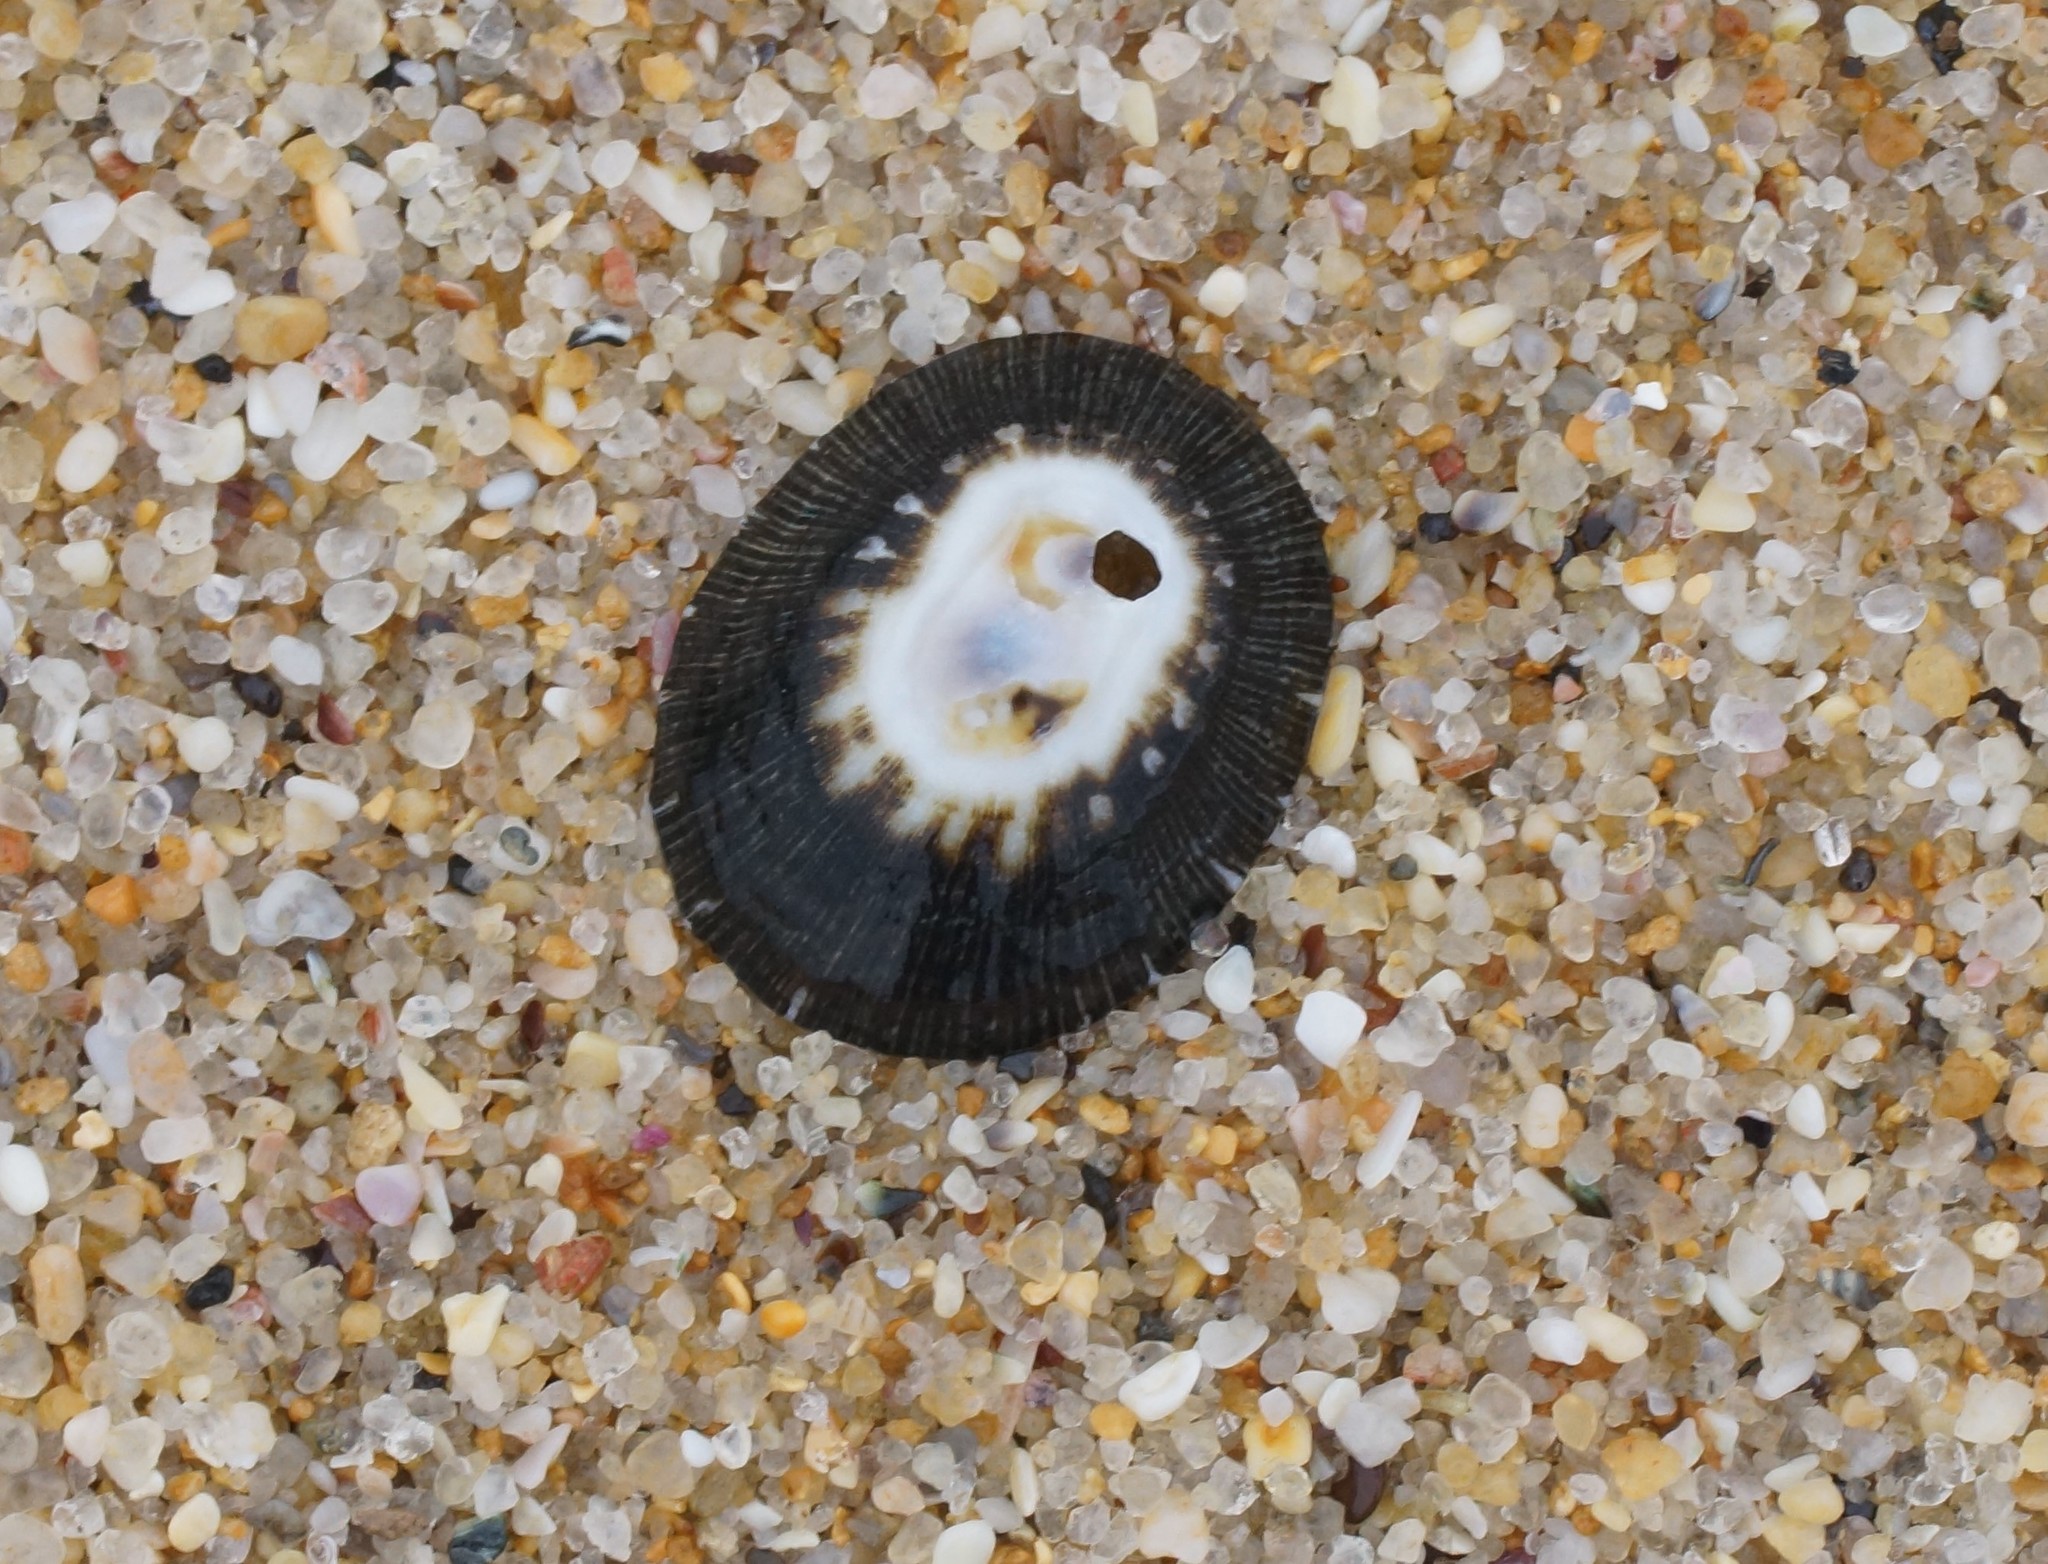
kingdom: Animalia
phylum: Mollusca
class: Gastropoda
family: Patellidae
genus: Scutellastra
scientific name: Scutellastra peronii
